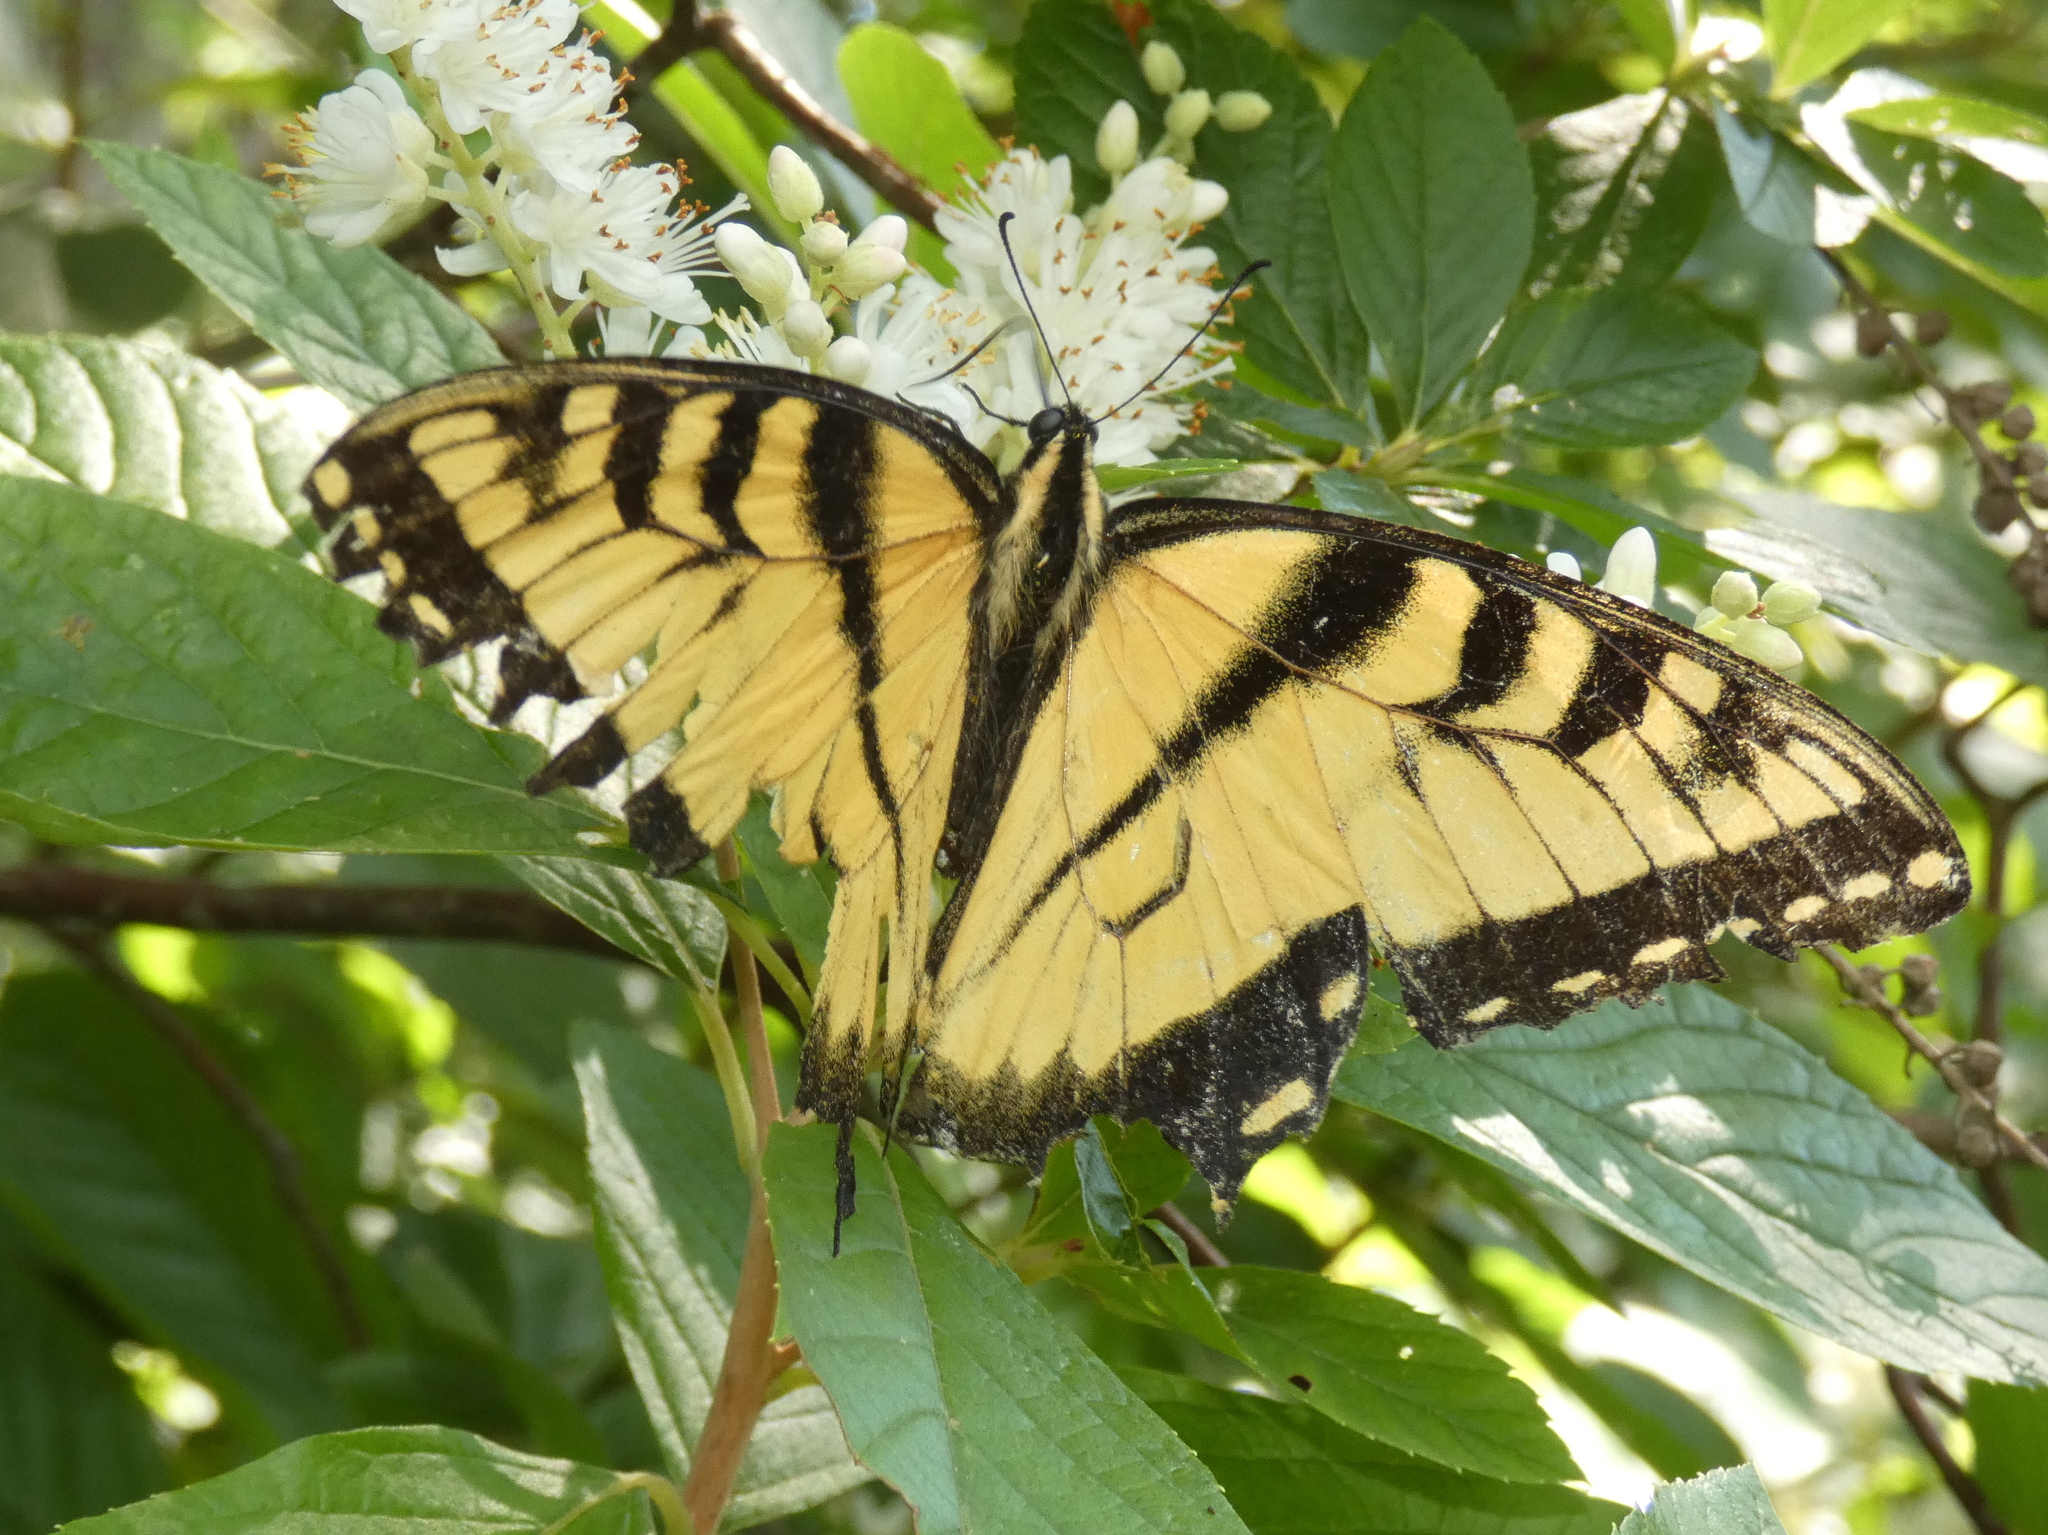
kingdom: Animalia
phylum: Arthropoda
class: Insecta
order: Lepidoptera
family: Papilionidae
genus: Papilio
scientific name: Papilio glaucus
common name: Tiger swallowtail
